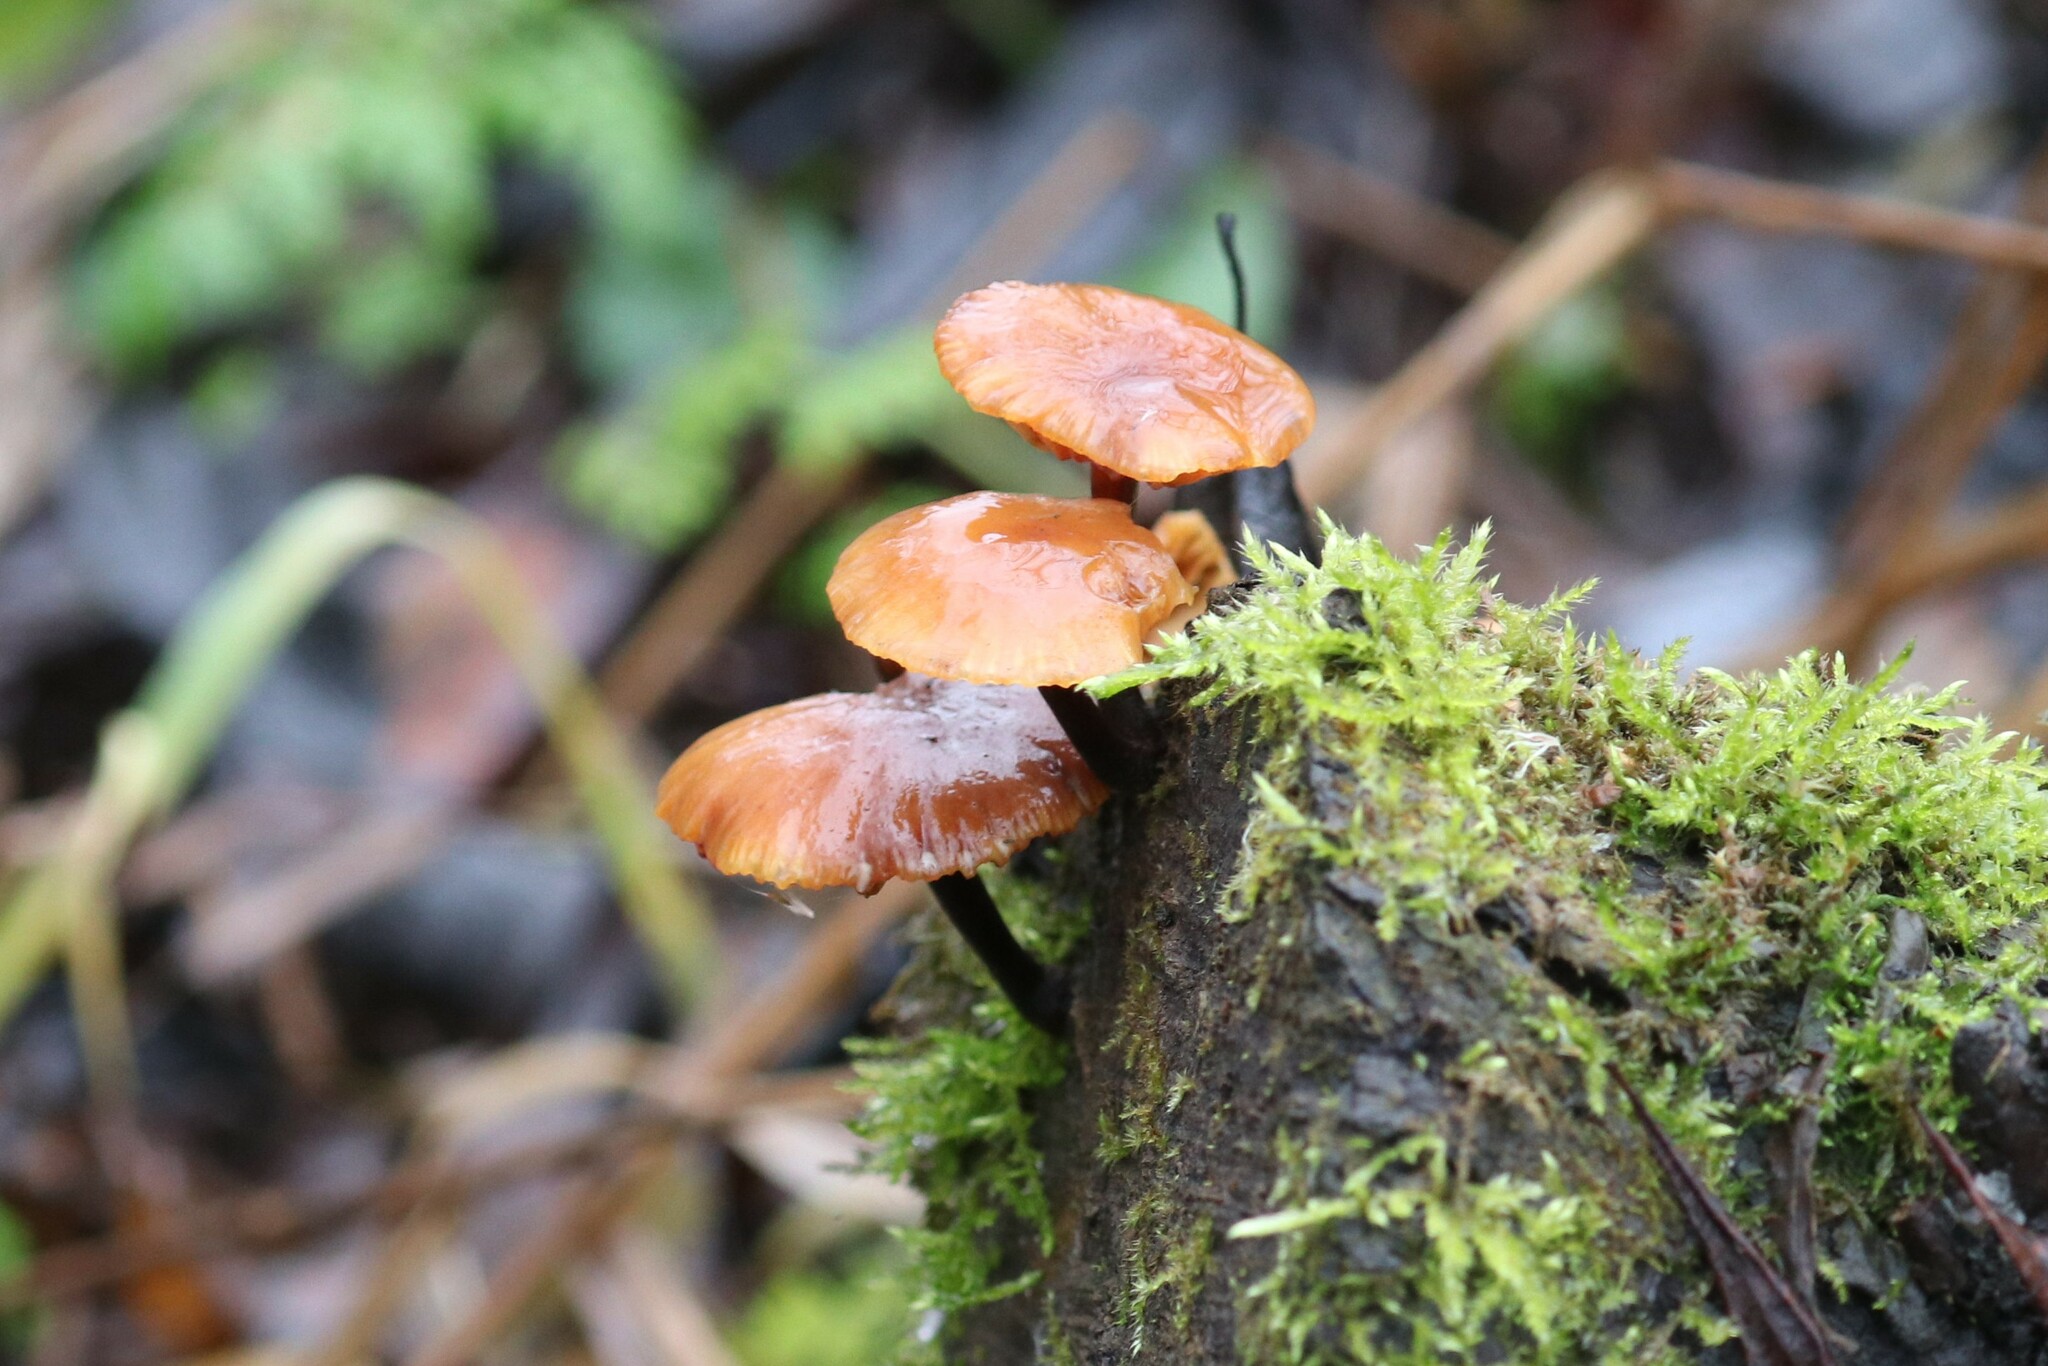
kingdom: Fungi
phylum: Basidiomycota
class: Agaricomycetes
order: Agaricales
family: Physalacriaceae
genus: Flammulina
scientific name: Flammulina
